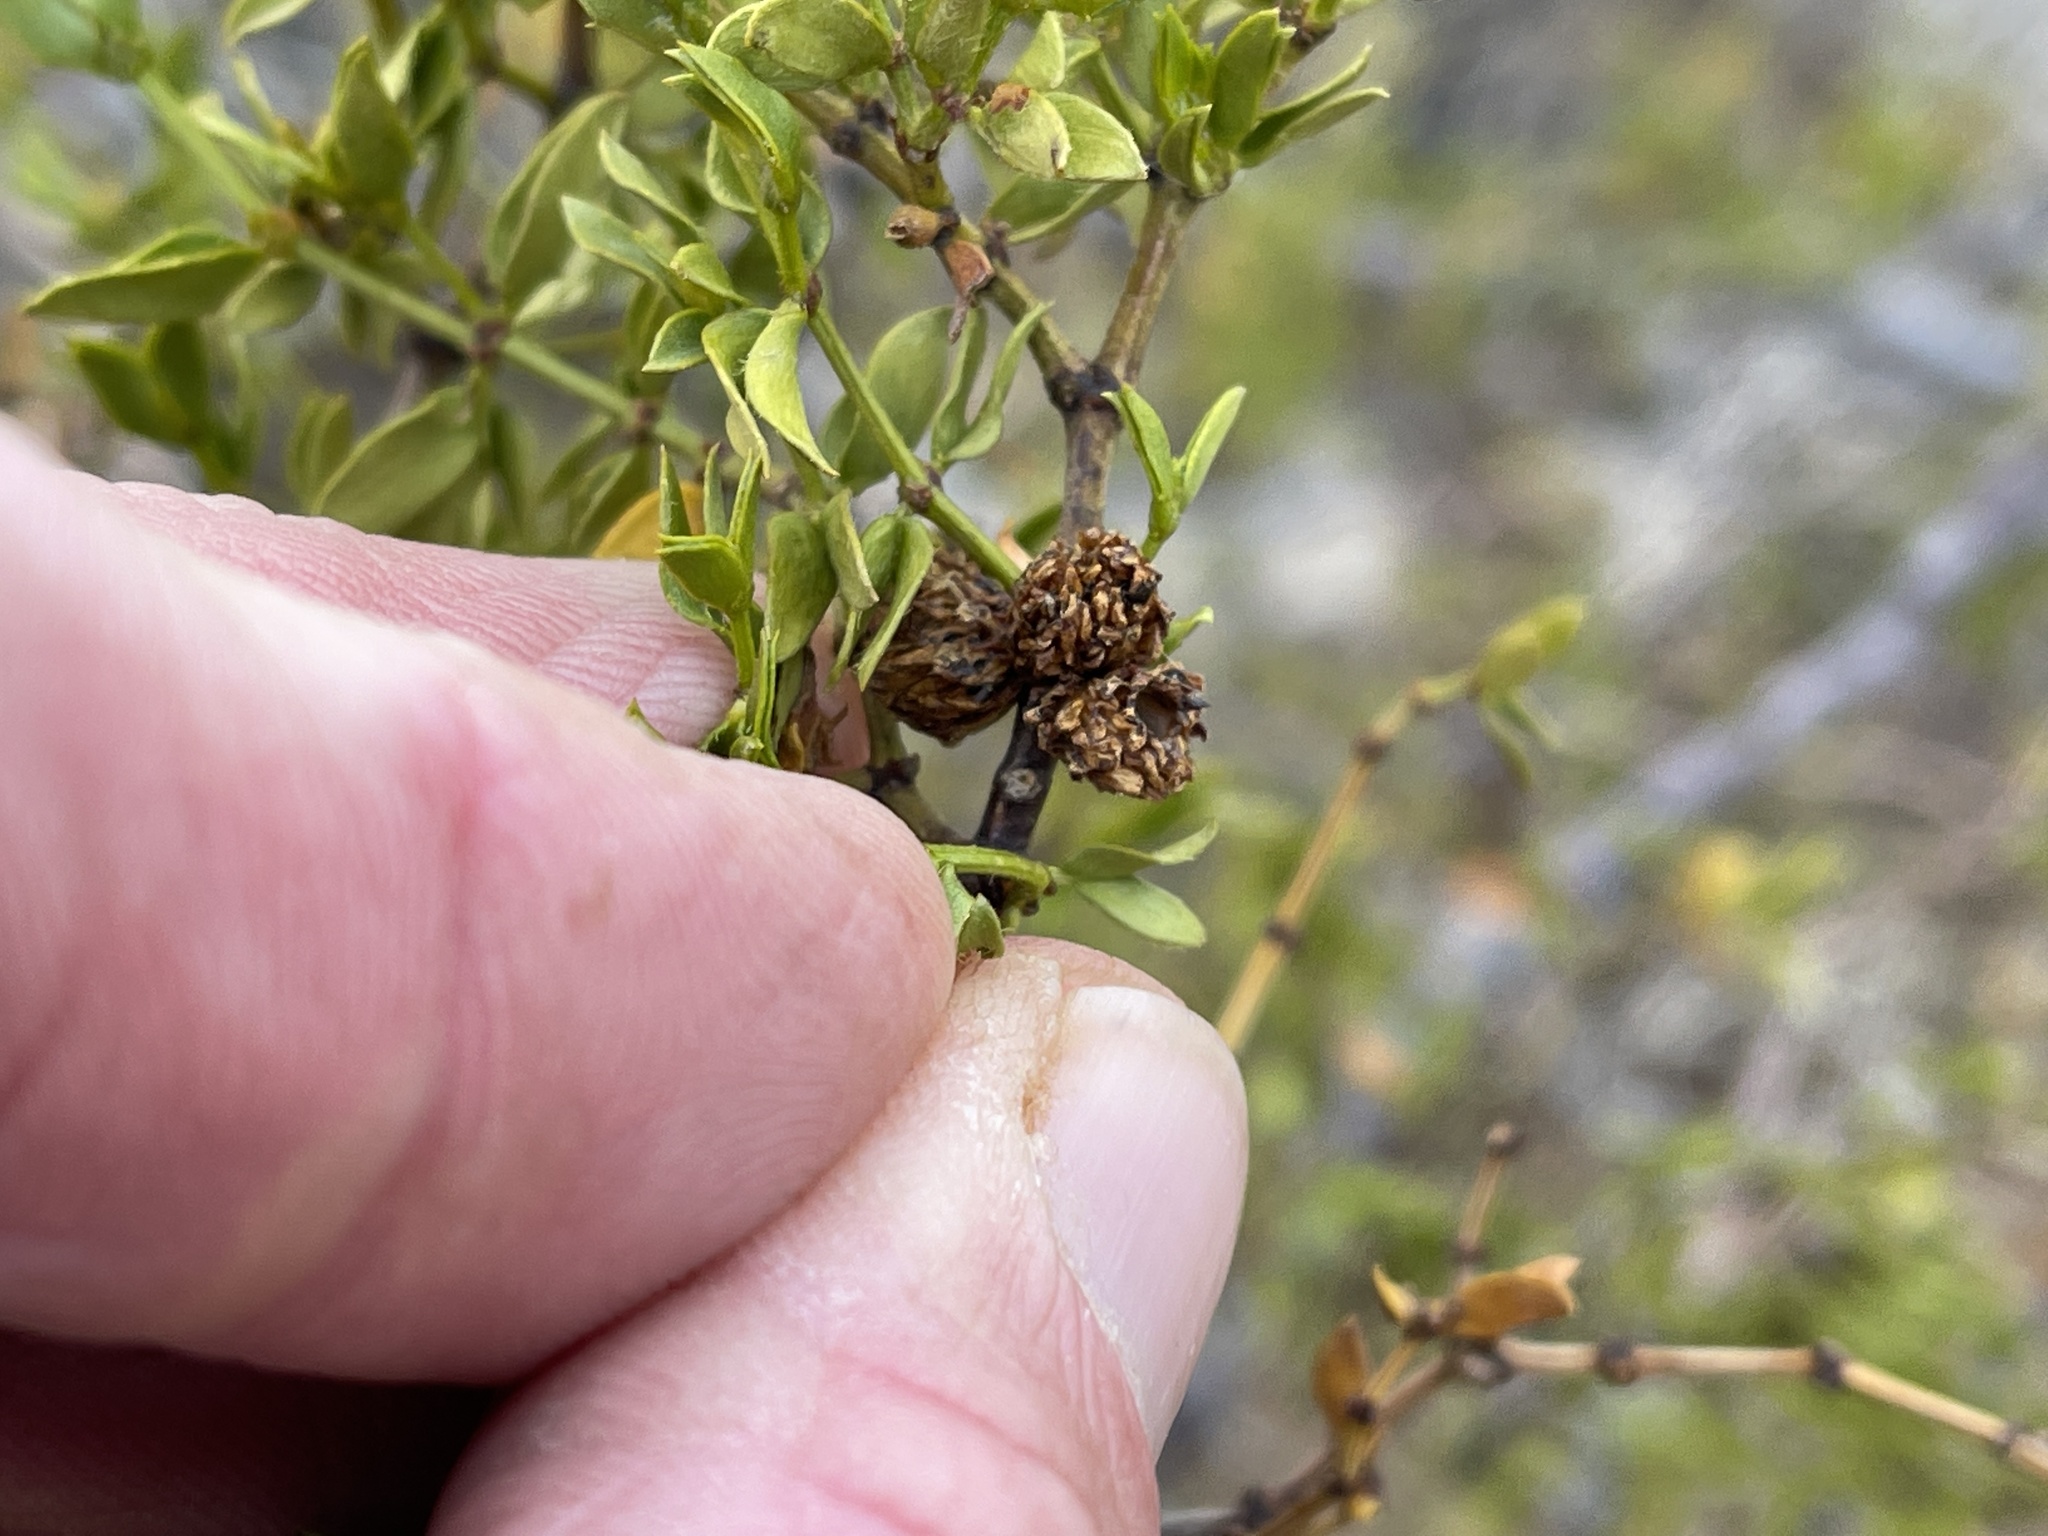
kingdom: Animalia
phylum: Arthropoda
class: Insecta
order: Diptera
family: Cecidomyiidae
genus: Asphondylia
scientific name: Asphondylia rosetta
